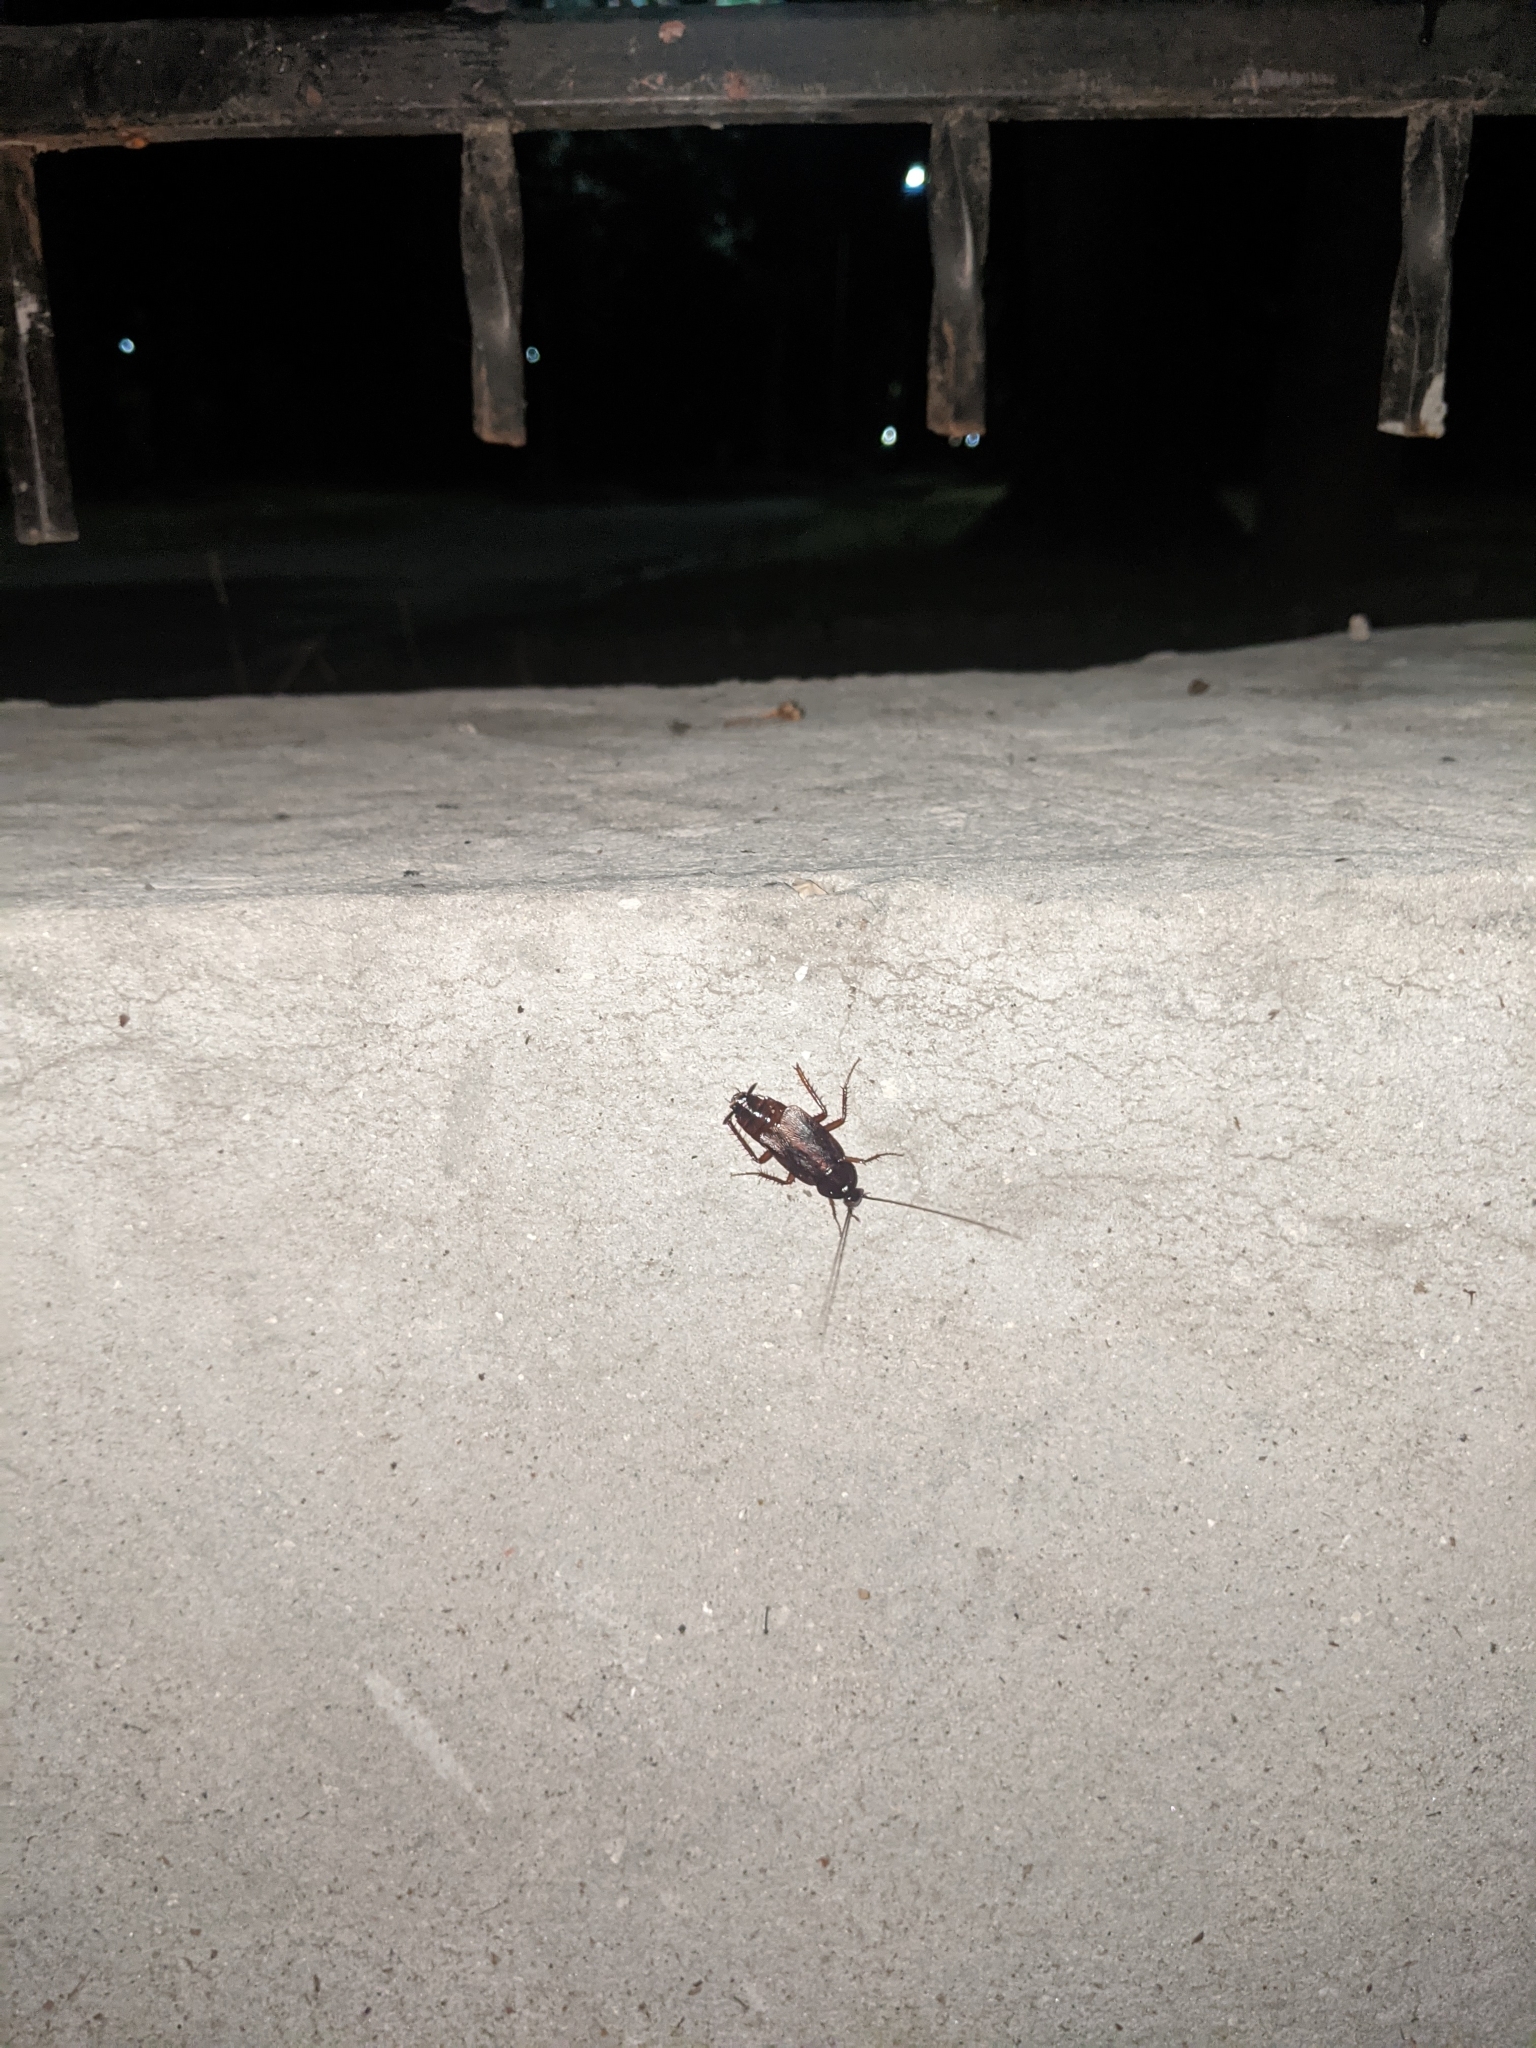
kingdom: Animalia
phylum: Arthropoda
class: Insecta
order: Blattodea
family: Blattidae
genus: Blatta
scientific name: Blatta orientalis
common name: Oriental cockroach
